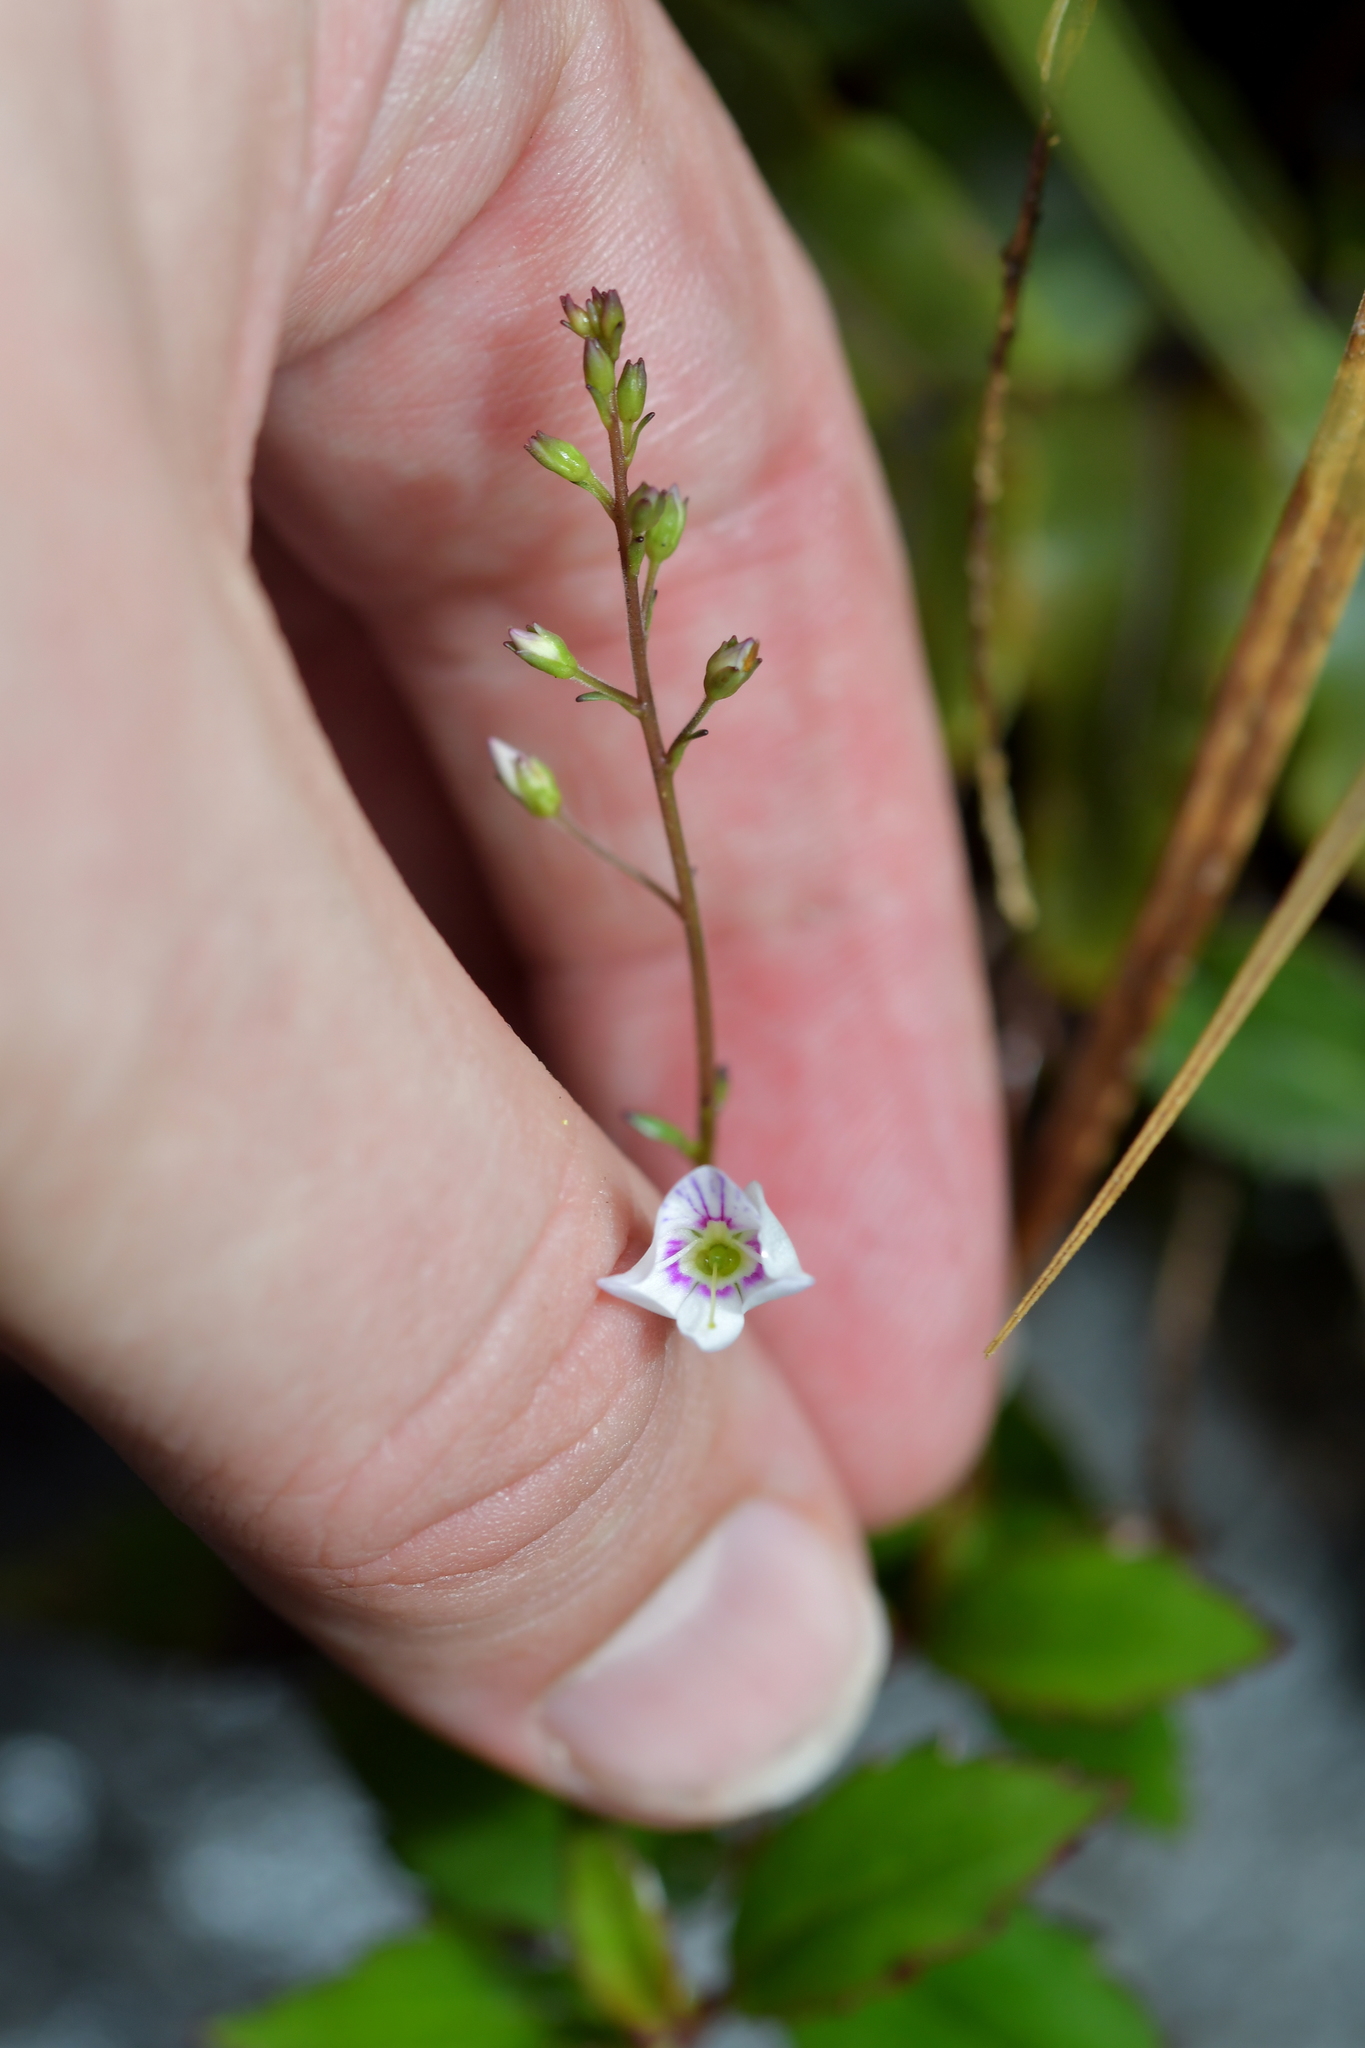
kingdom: Plantae
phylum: Tracheophyta
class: Magnoliopsida
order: Lamiales
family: Plantaginaceae
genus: Veronica
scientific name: Veronica lanceolata
